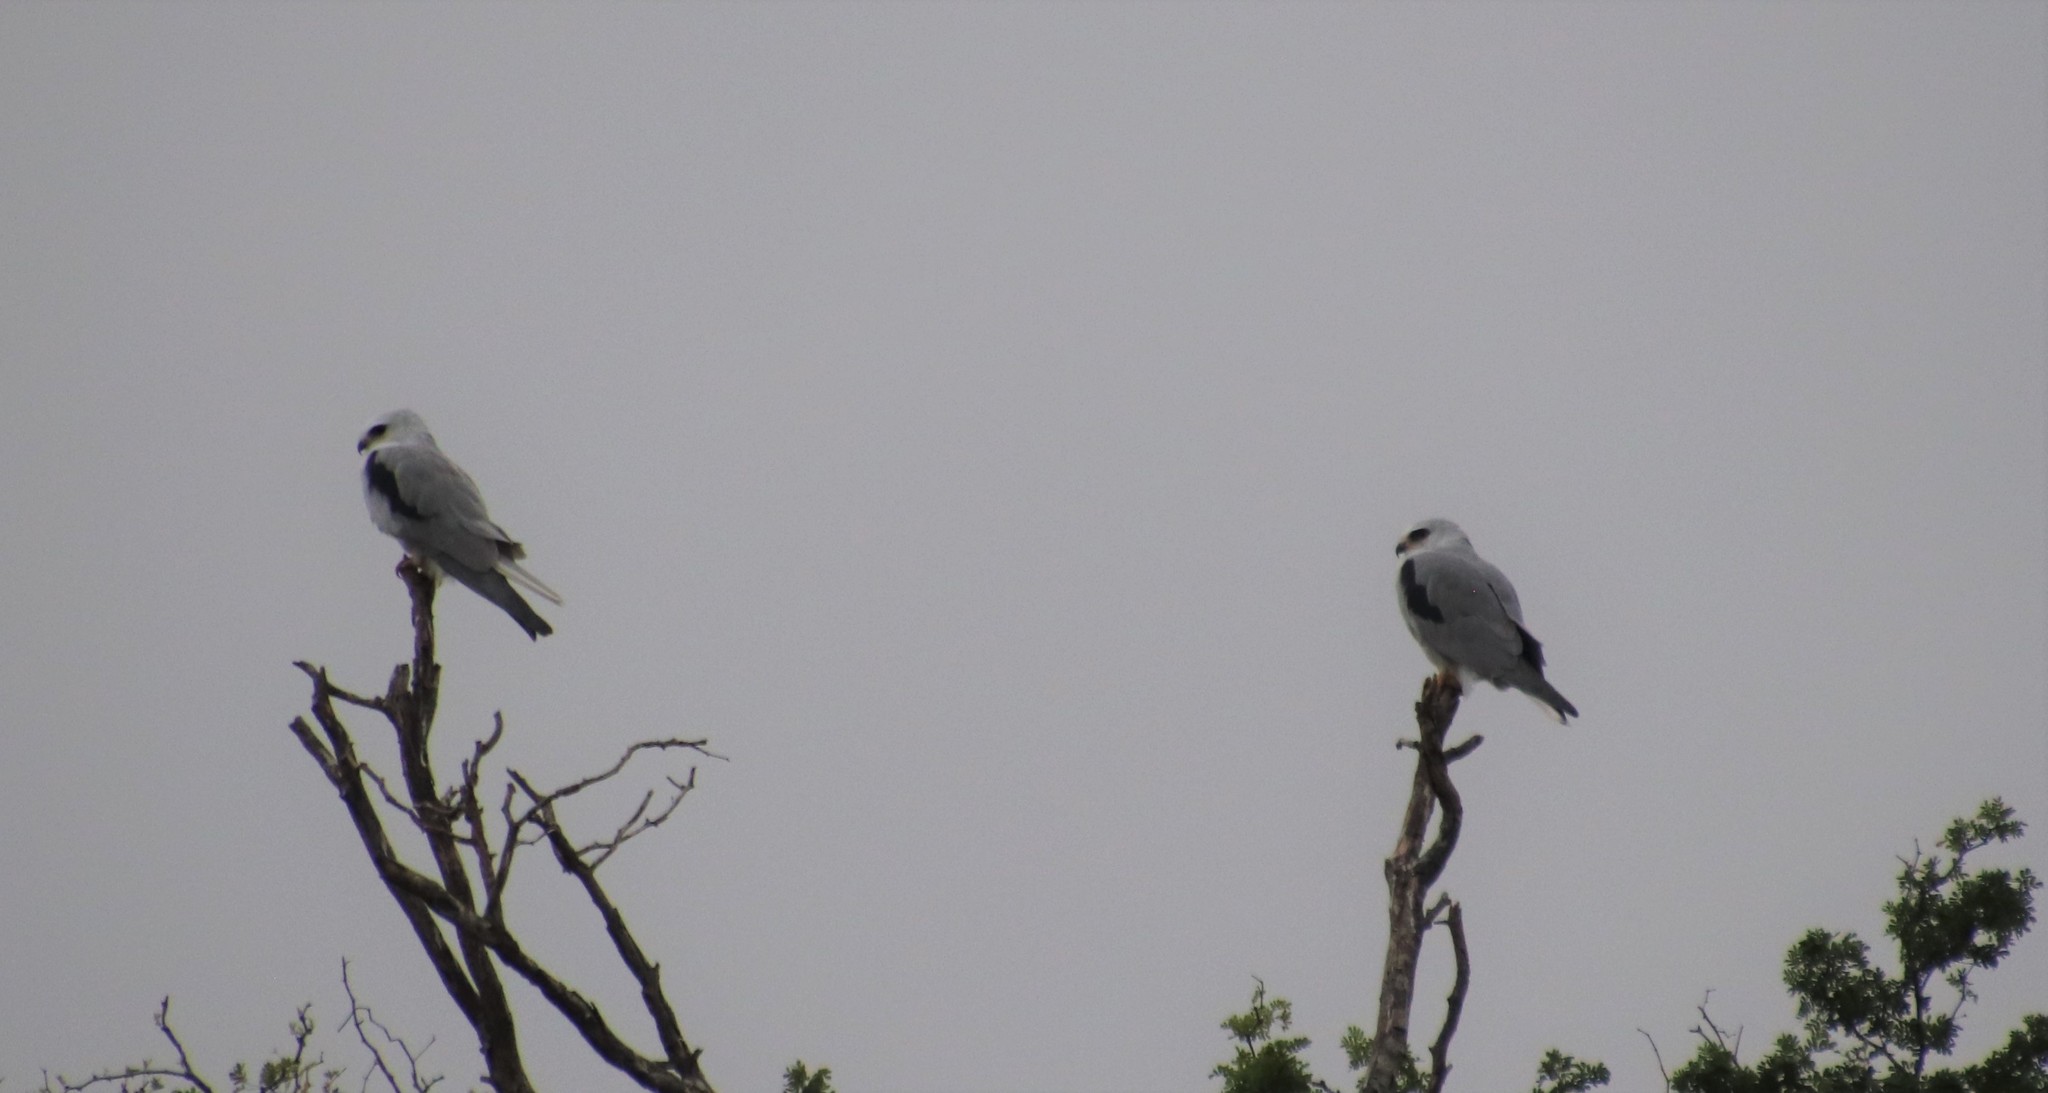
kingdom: Animalia
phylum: Chordata
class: Aves
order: Accipitriformes
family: Accipitridae
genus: Elanus
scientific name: Elanus leucurus
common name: White-tailed kite
